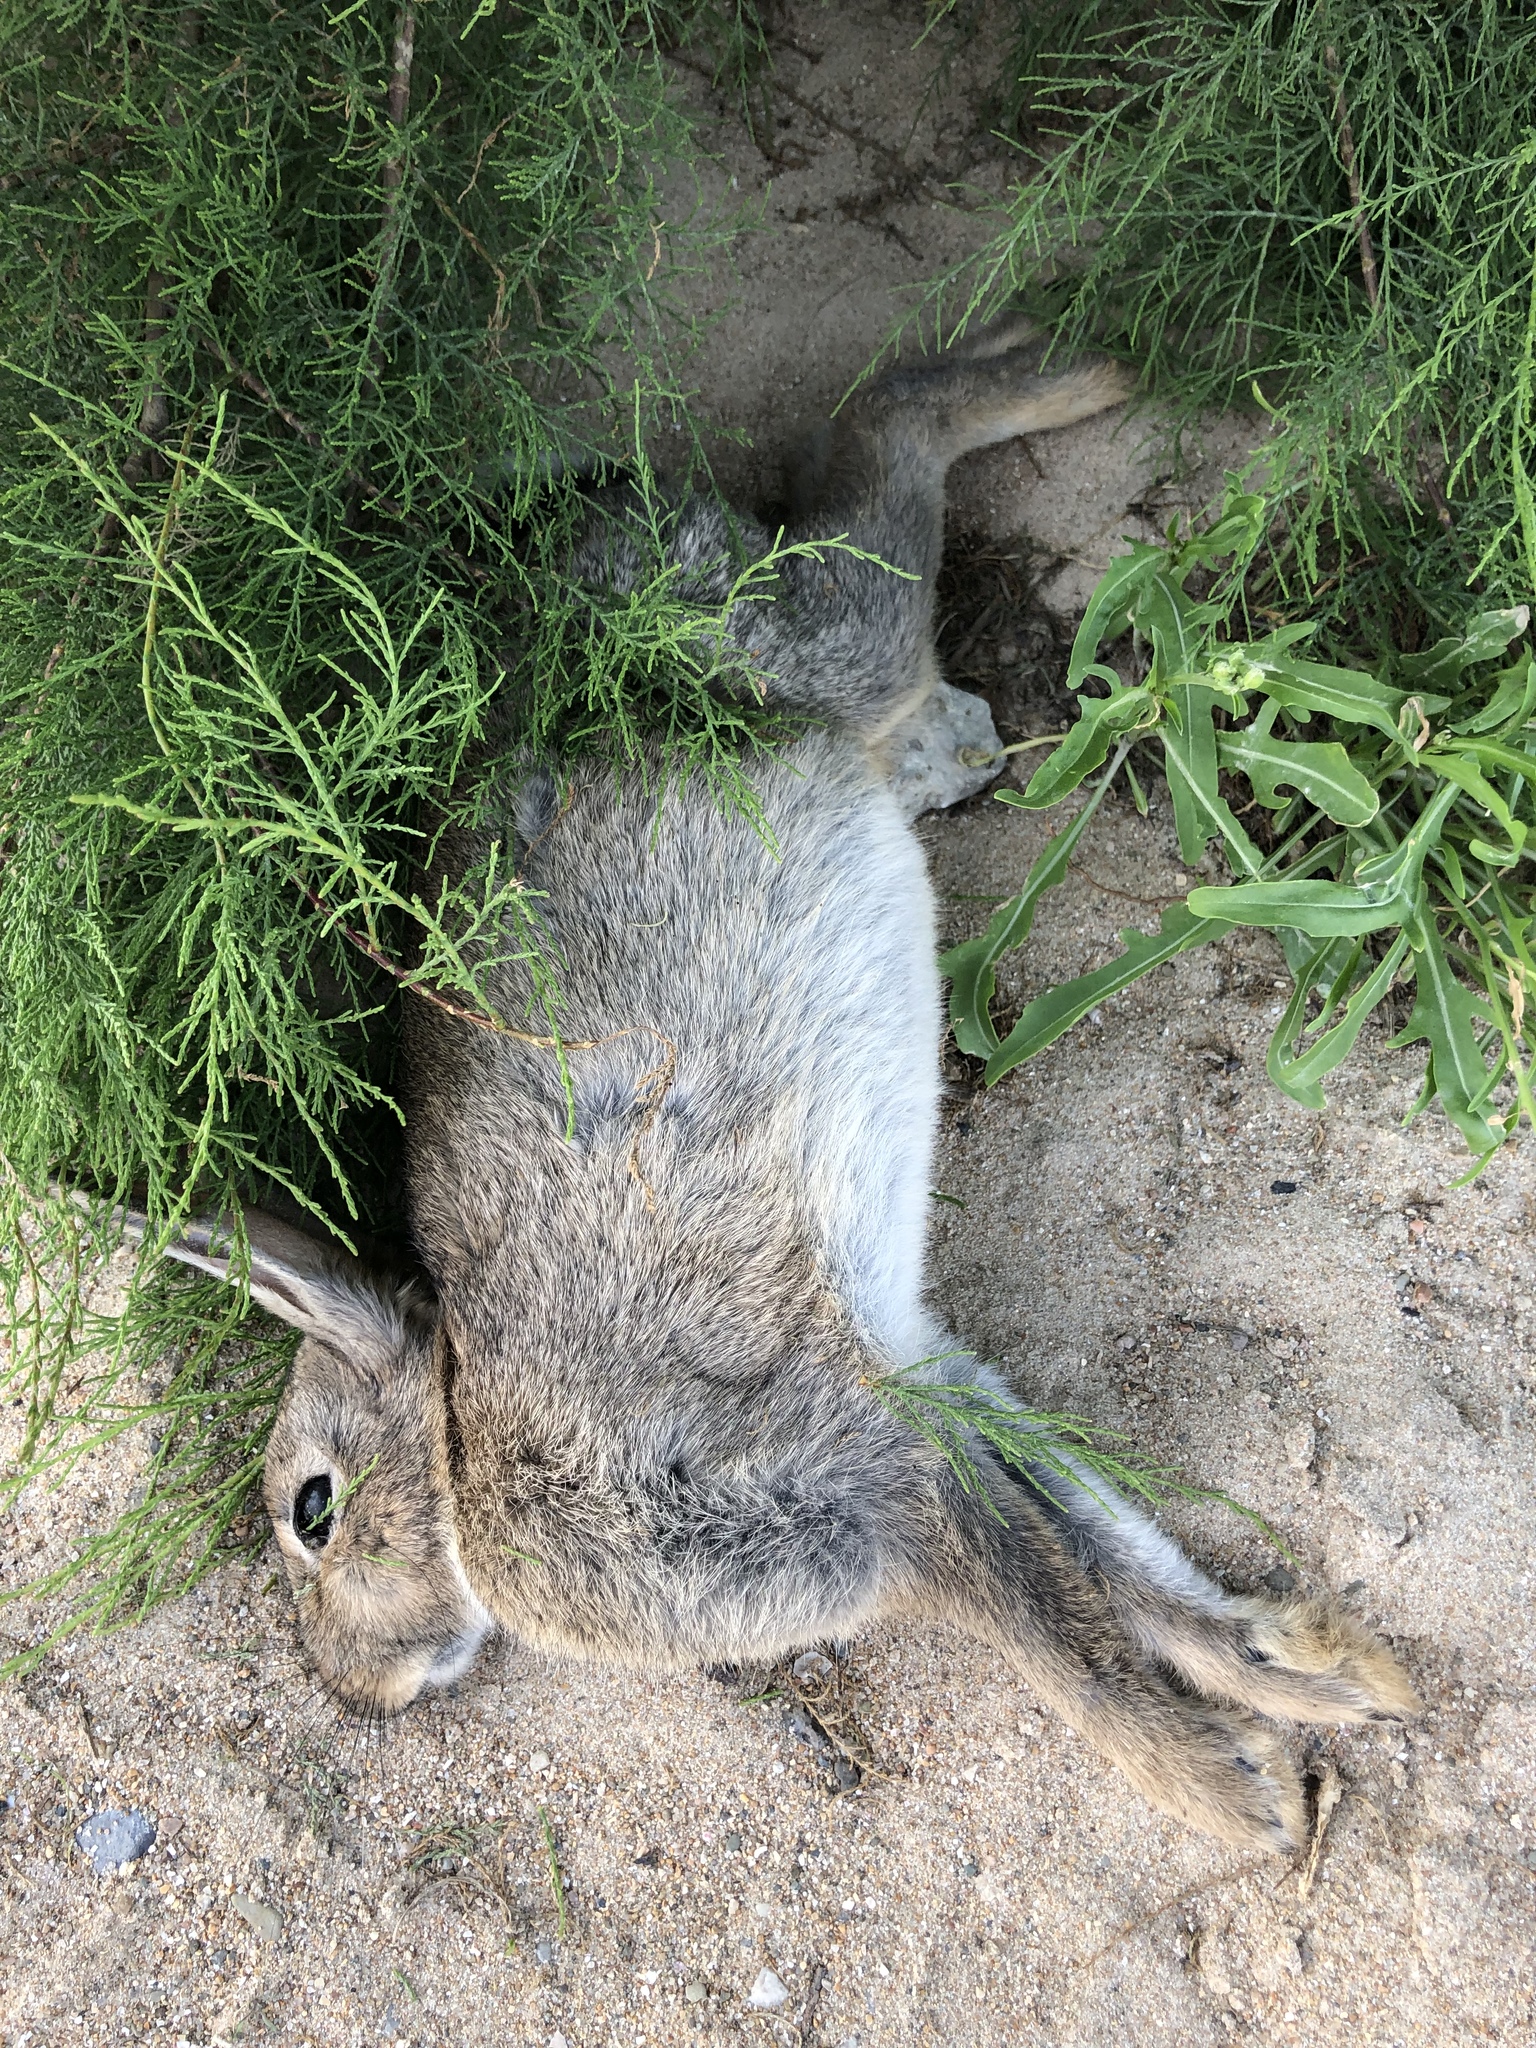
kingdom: Animalia
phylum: Chordata
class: Mammalia
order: Lagomorpha
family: Leporidae
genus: Oryctolagus
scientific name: Oryctolagus cuniculus
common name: European rabbit
